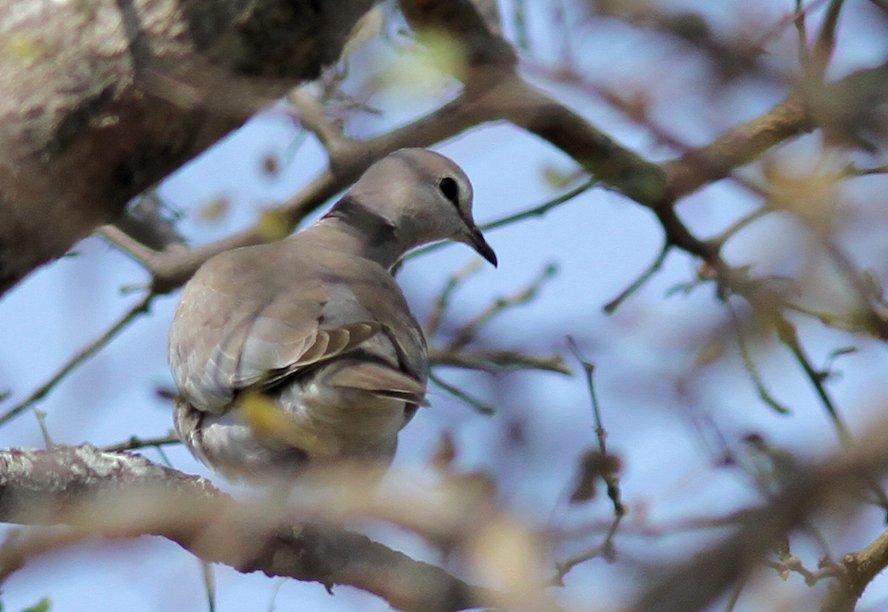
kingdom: Animalia
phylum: Chordata
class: Aves
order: Columbiformes
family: Columbidae
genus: Streptopelia
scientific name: Streptopelia capicola
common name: Ring-necked dove
